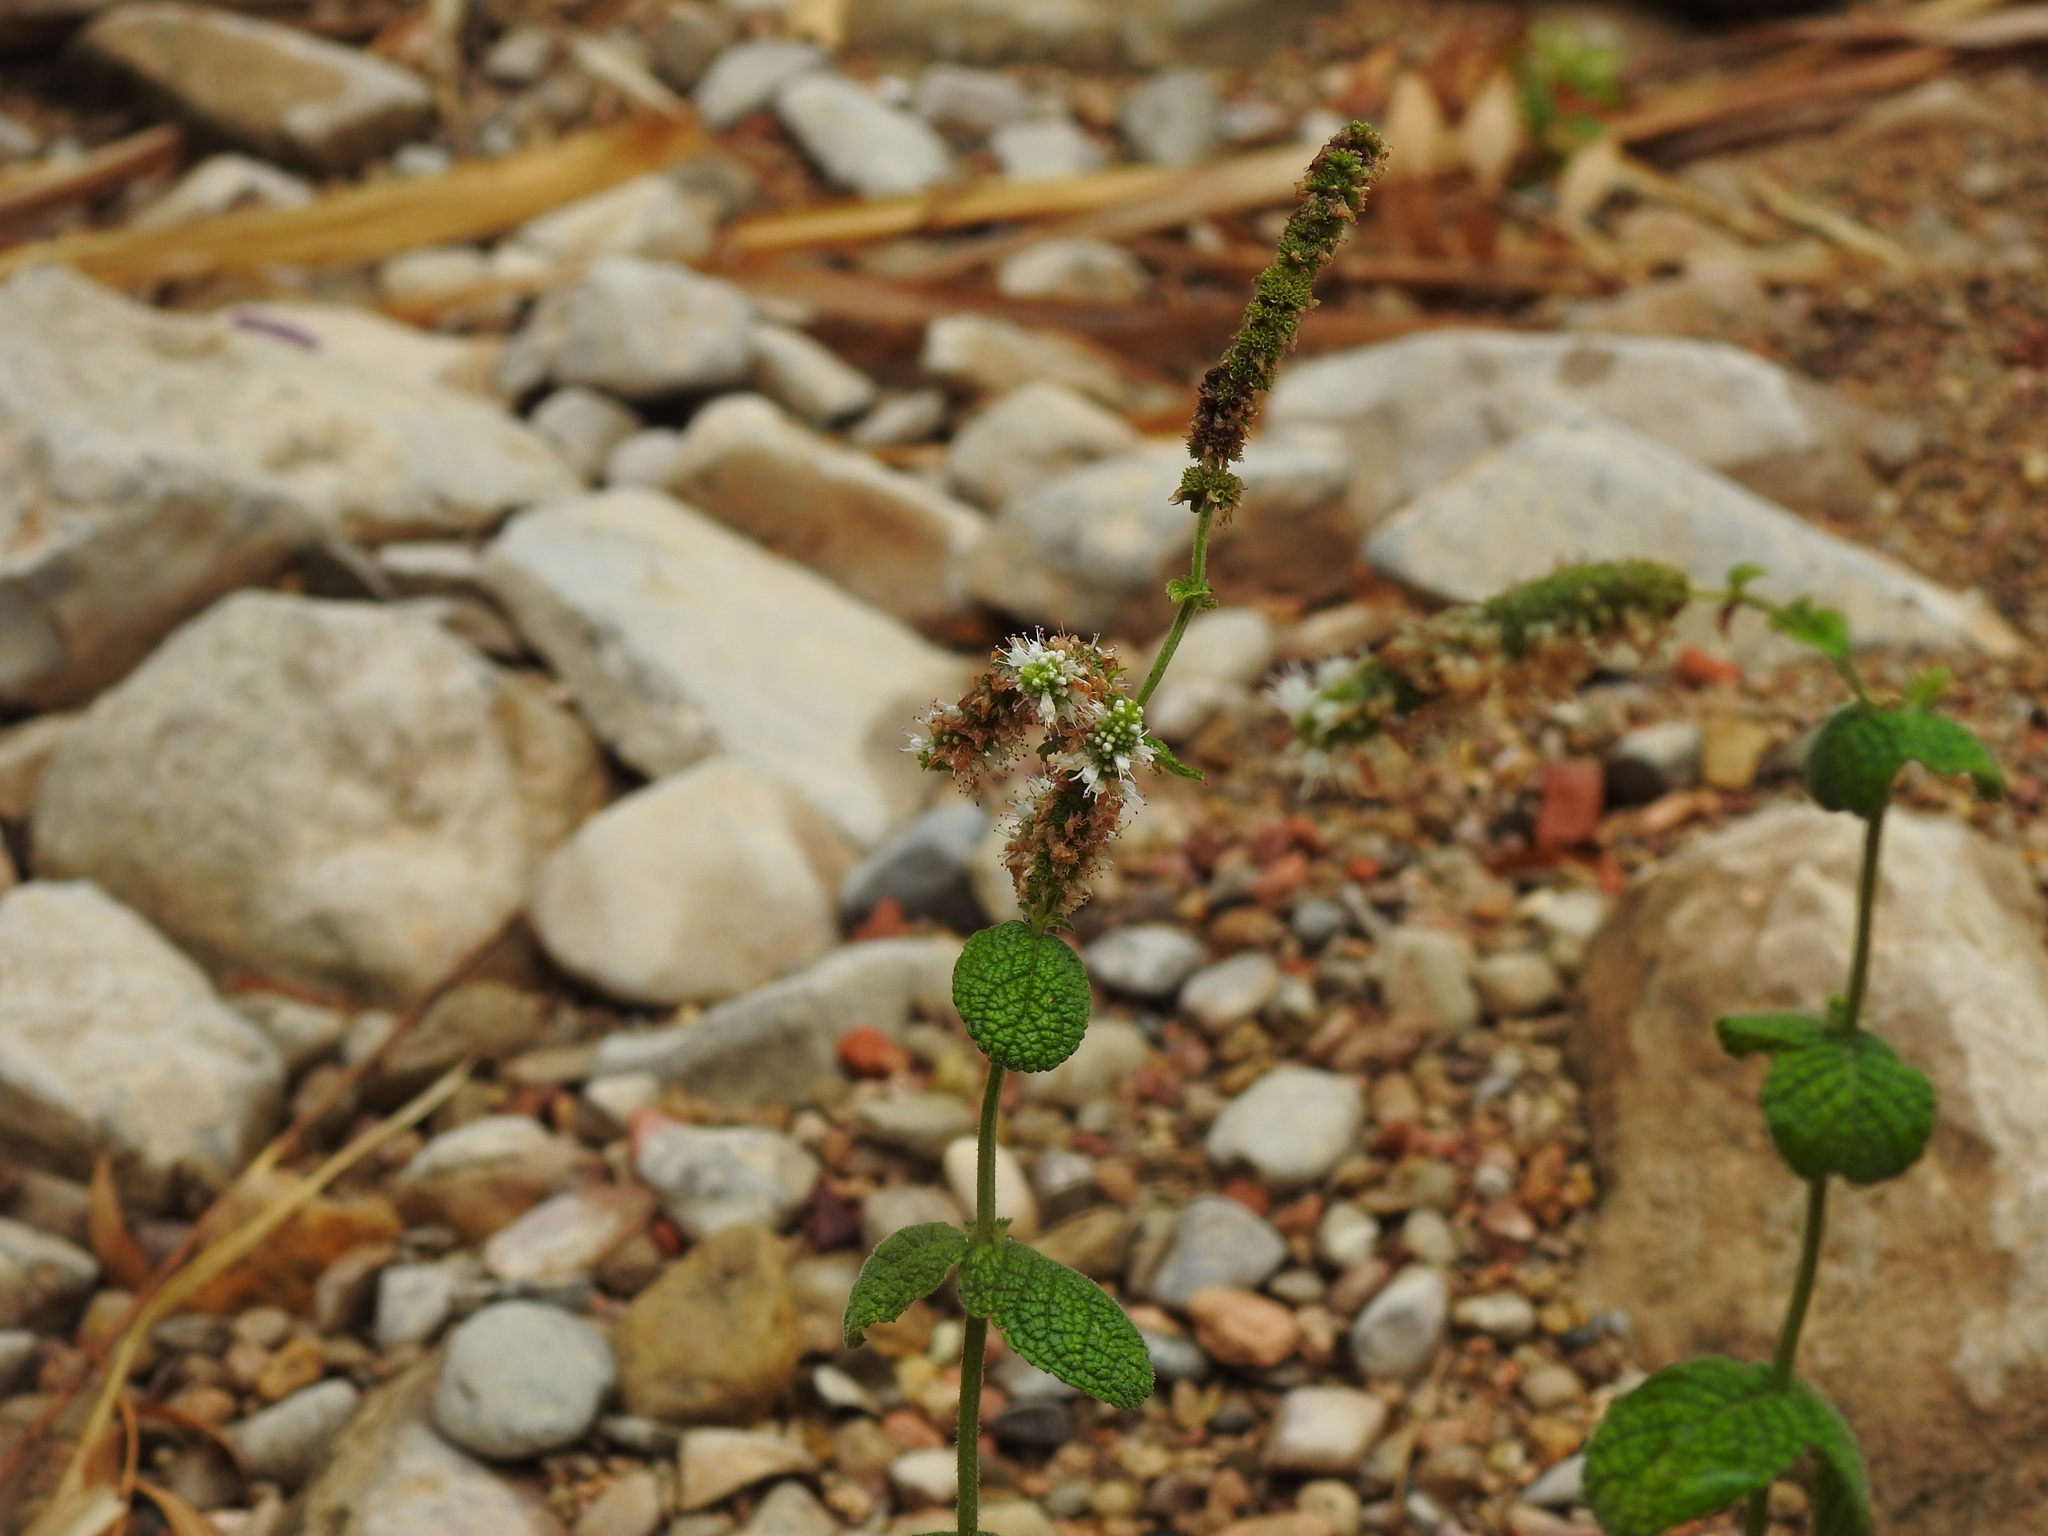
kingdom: Plantae
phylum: Tracheophyta
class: Magnoliopsida
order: Lamiales
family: Lamiaceae
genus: Mentha
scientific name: Mentha suaveolens
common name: Apple mint
